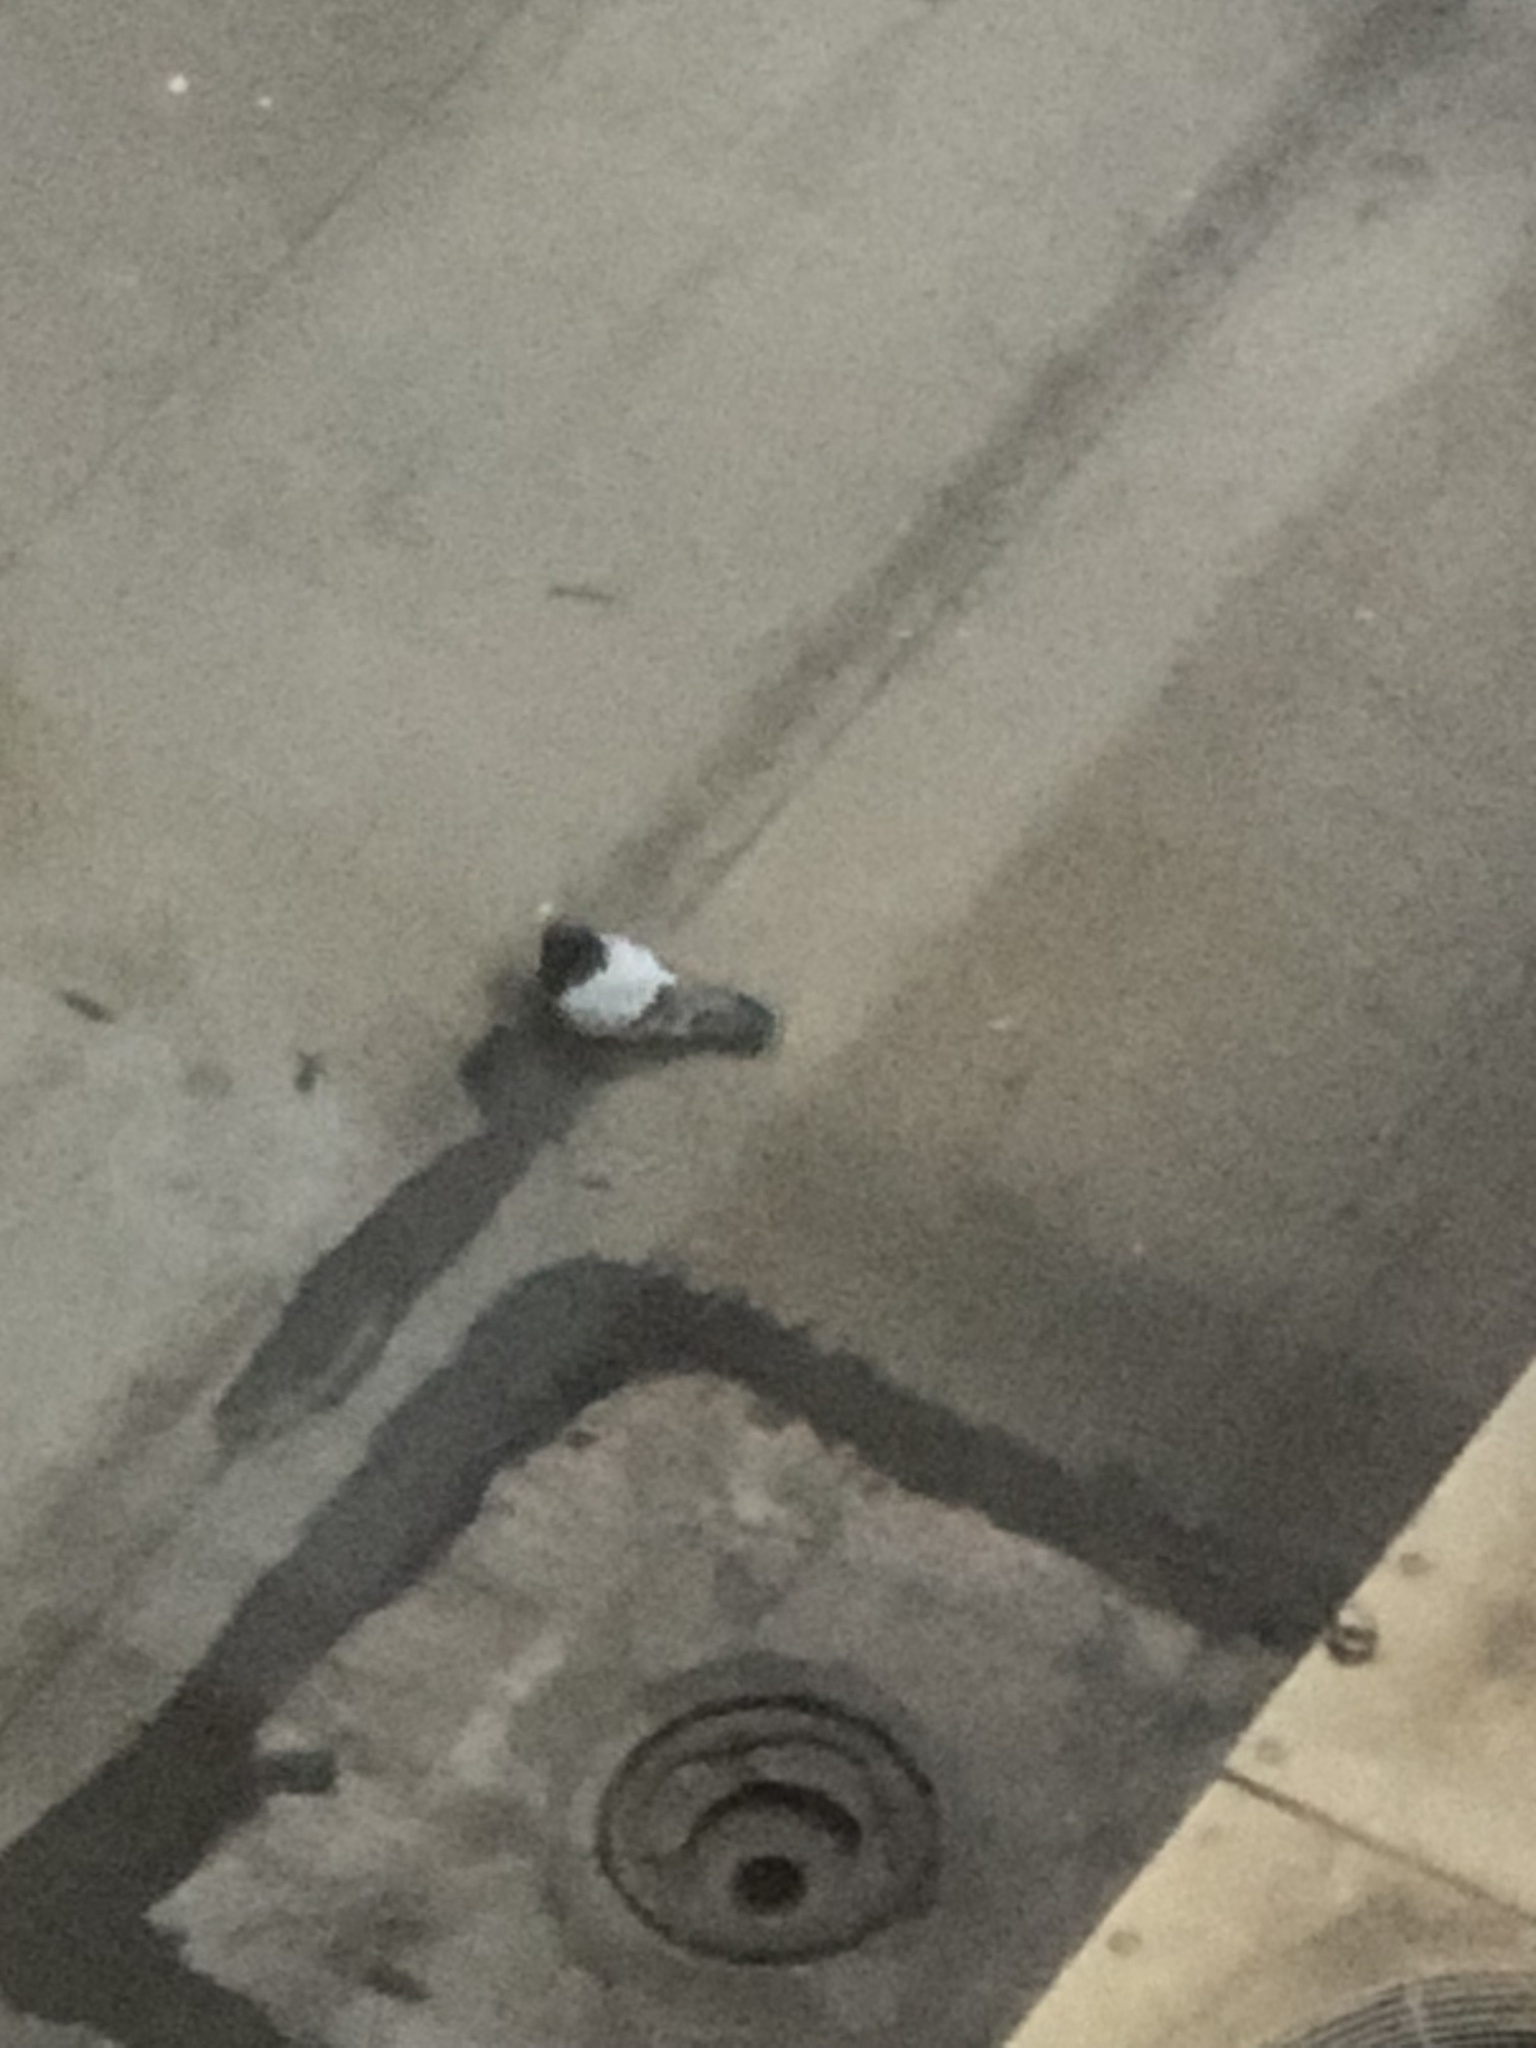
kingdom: Animalia
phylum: Chordata
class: Aves
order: Columbiformes
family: Columbidae
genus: Columba
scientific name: Columba livia
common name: Rock pigeon
